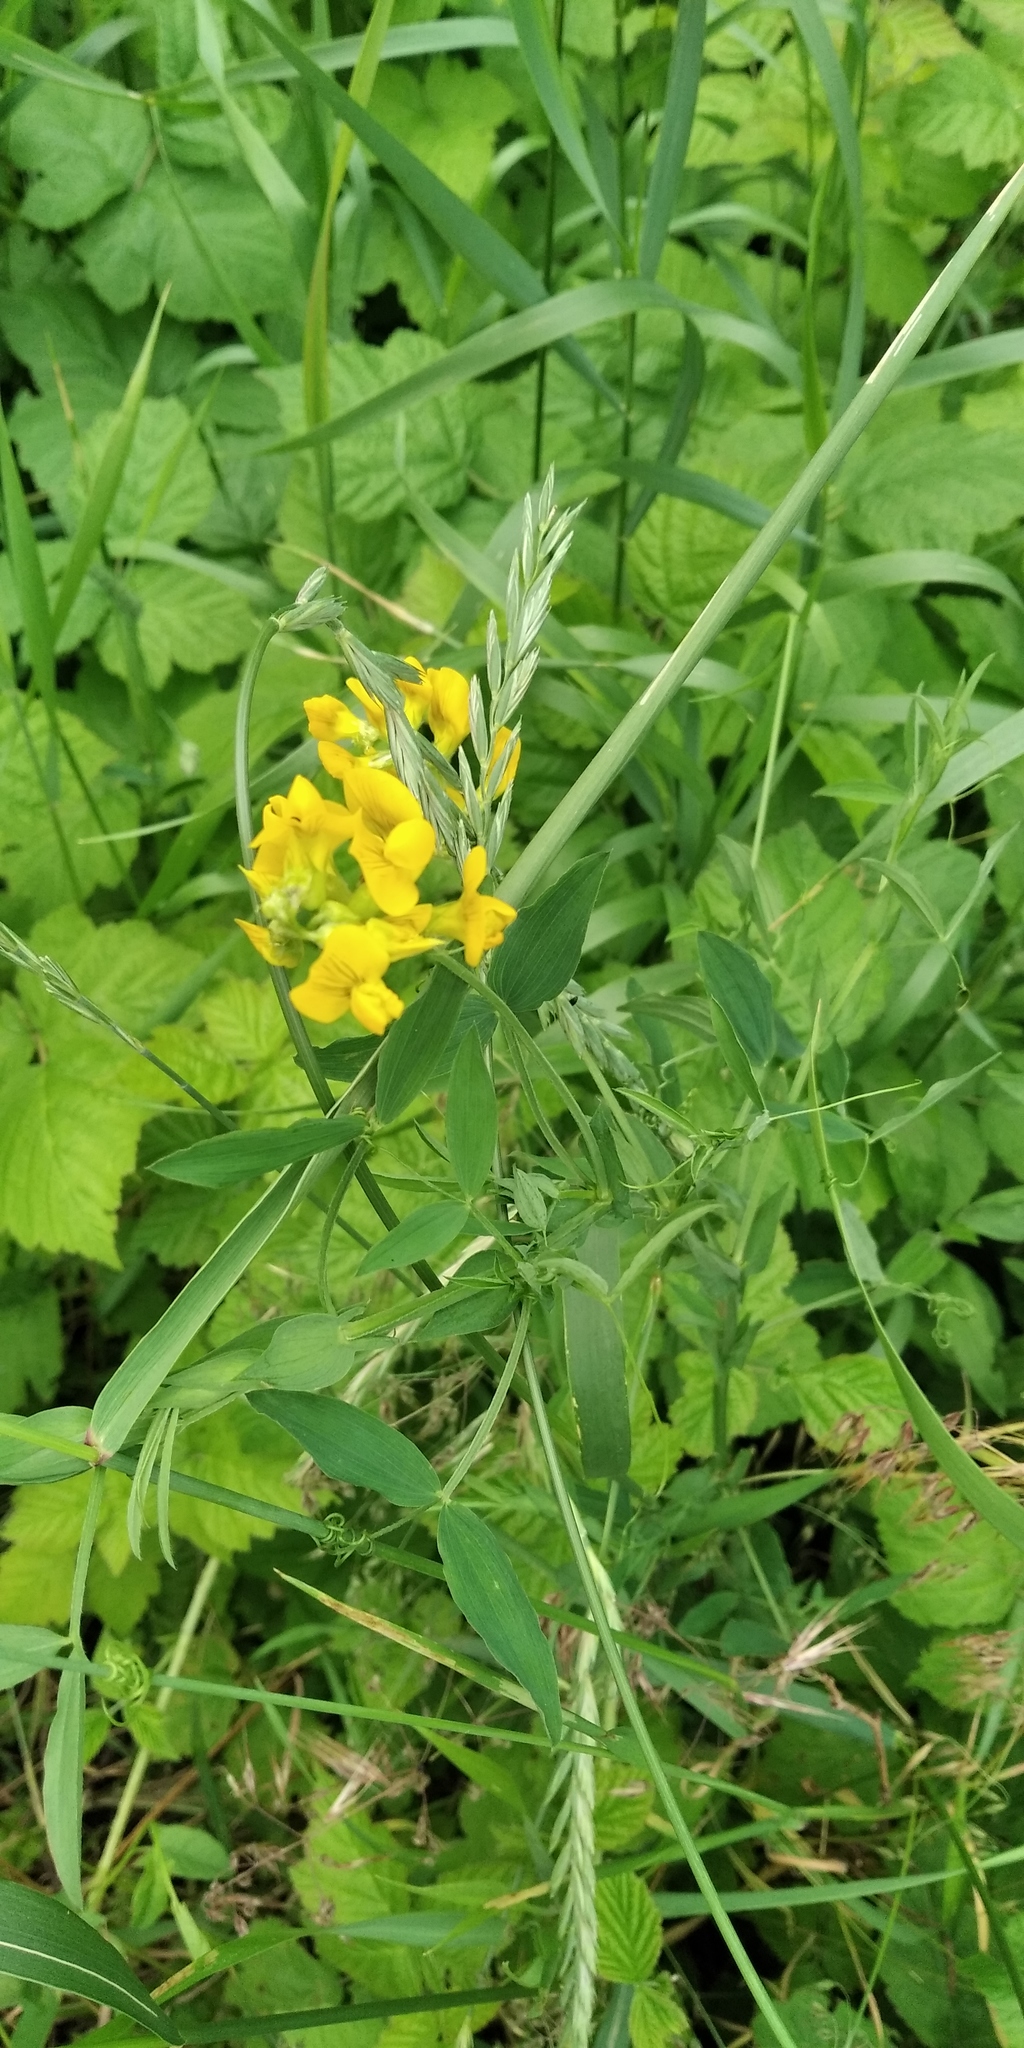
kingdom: Plantae
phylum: Tracheophyta
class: Magnoliopsida
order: Fabales
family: Fabaceae
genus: Lathyrus
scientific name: Lathyrus pratensis
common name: Meadow vetchling
